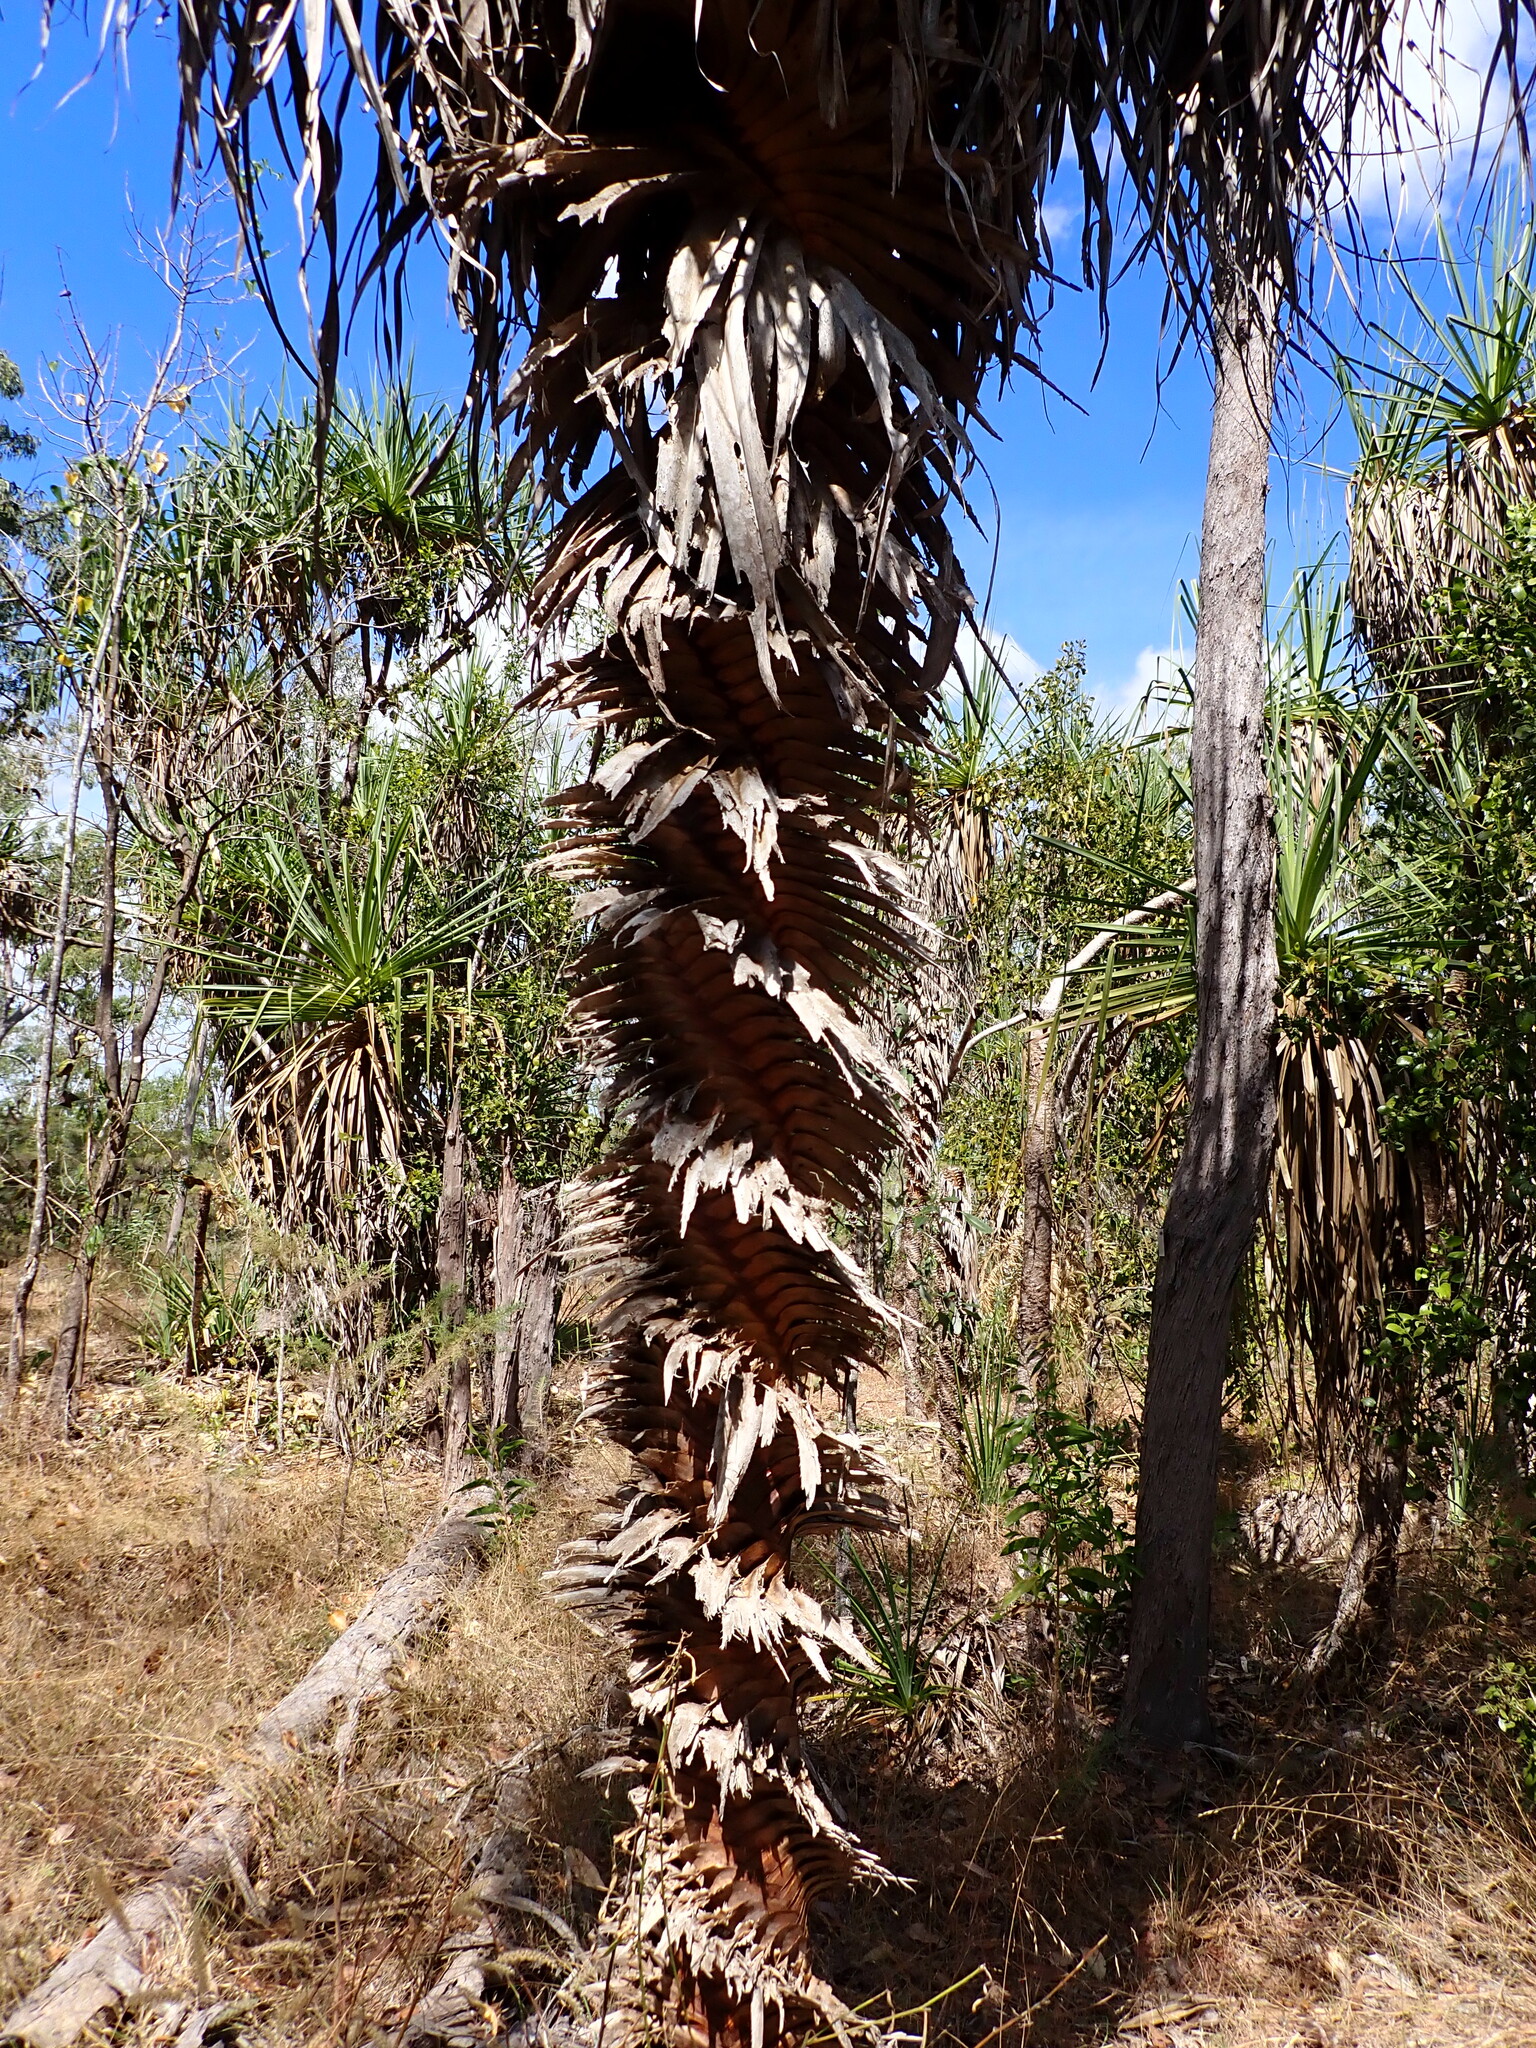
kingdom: Plantae
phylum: Tracheophyta
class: Liliopsida
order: Pandanales
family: Pandanaceae
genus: Pandanus
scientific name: Pandanus spiralis
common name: Screw-pine
